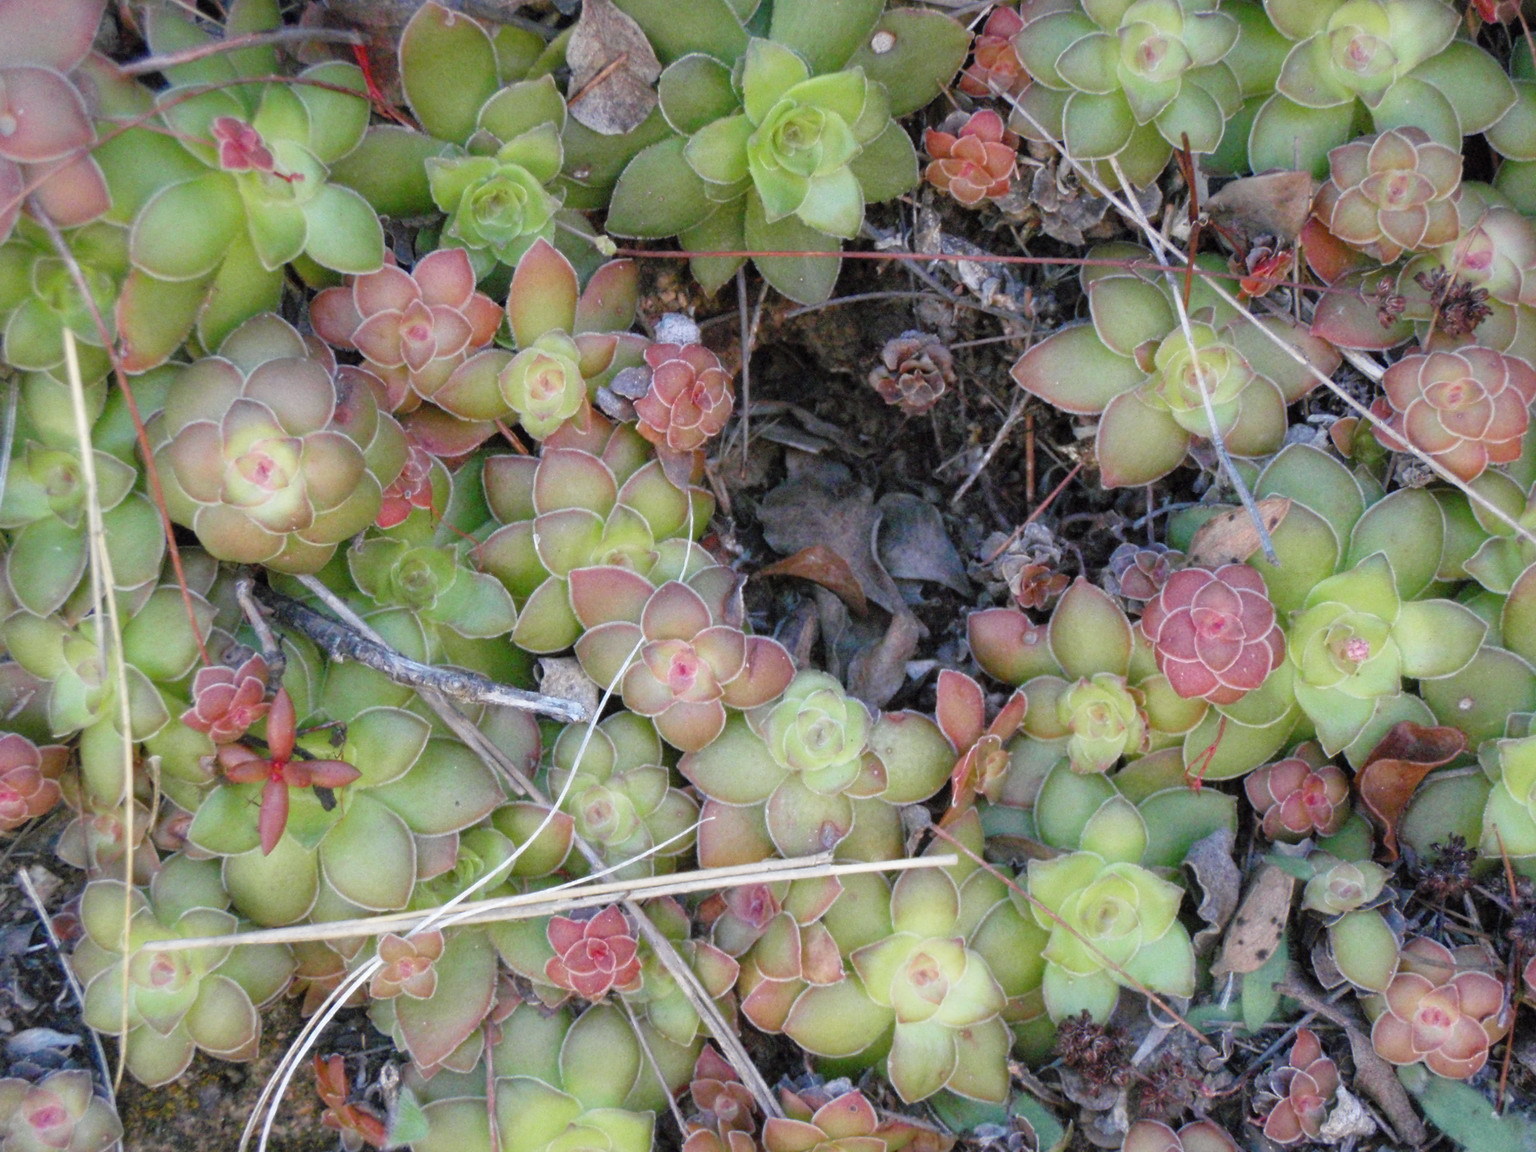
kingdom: Plantae
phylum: Tracheophyta
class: Magnoliopsida
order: Saxifragales
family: Crassulaceae
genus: Crassula
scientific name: Crassula orbicularis
